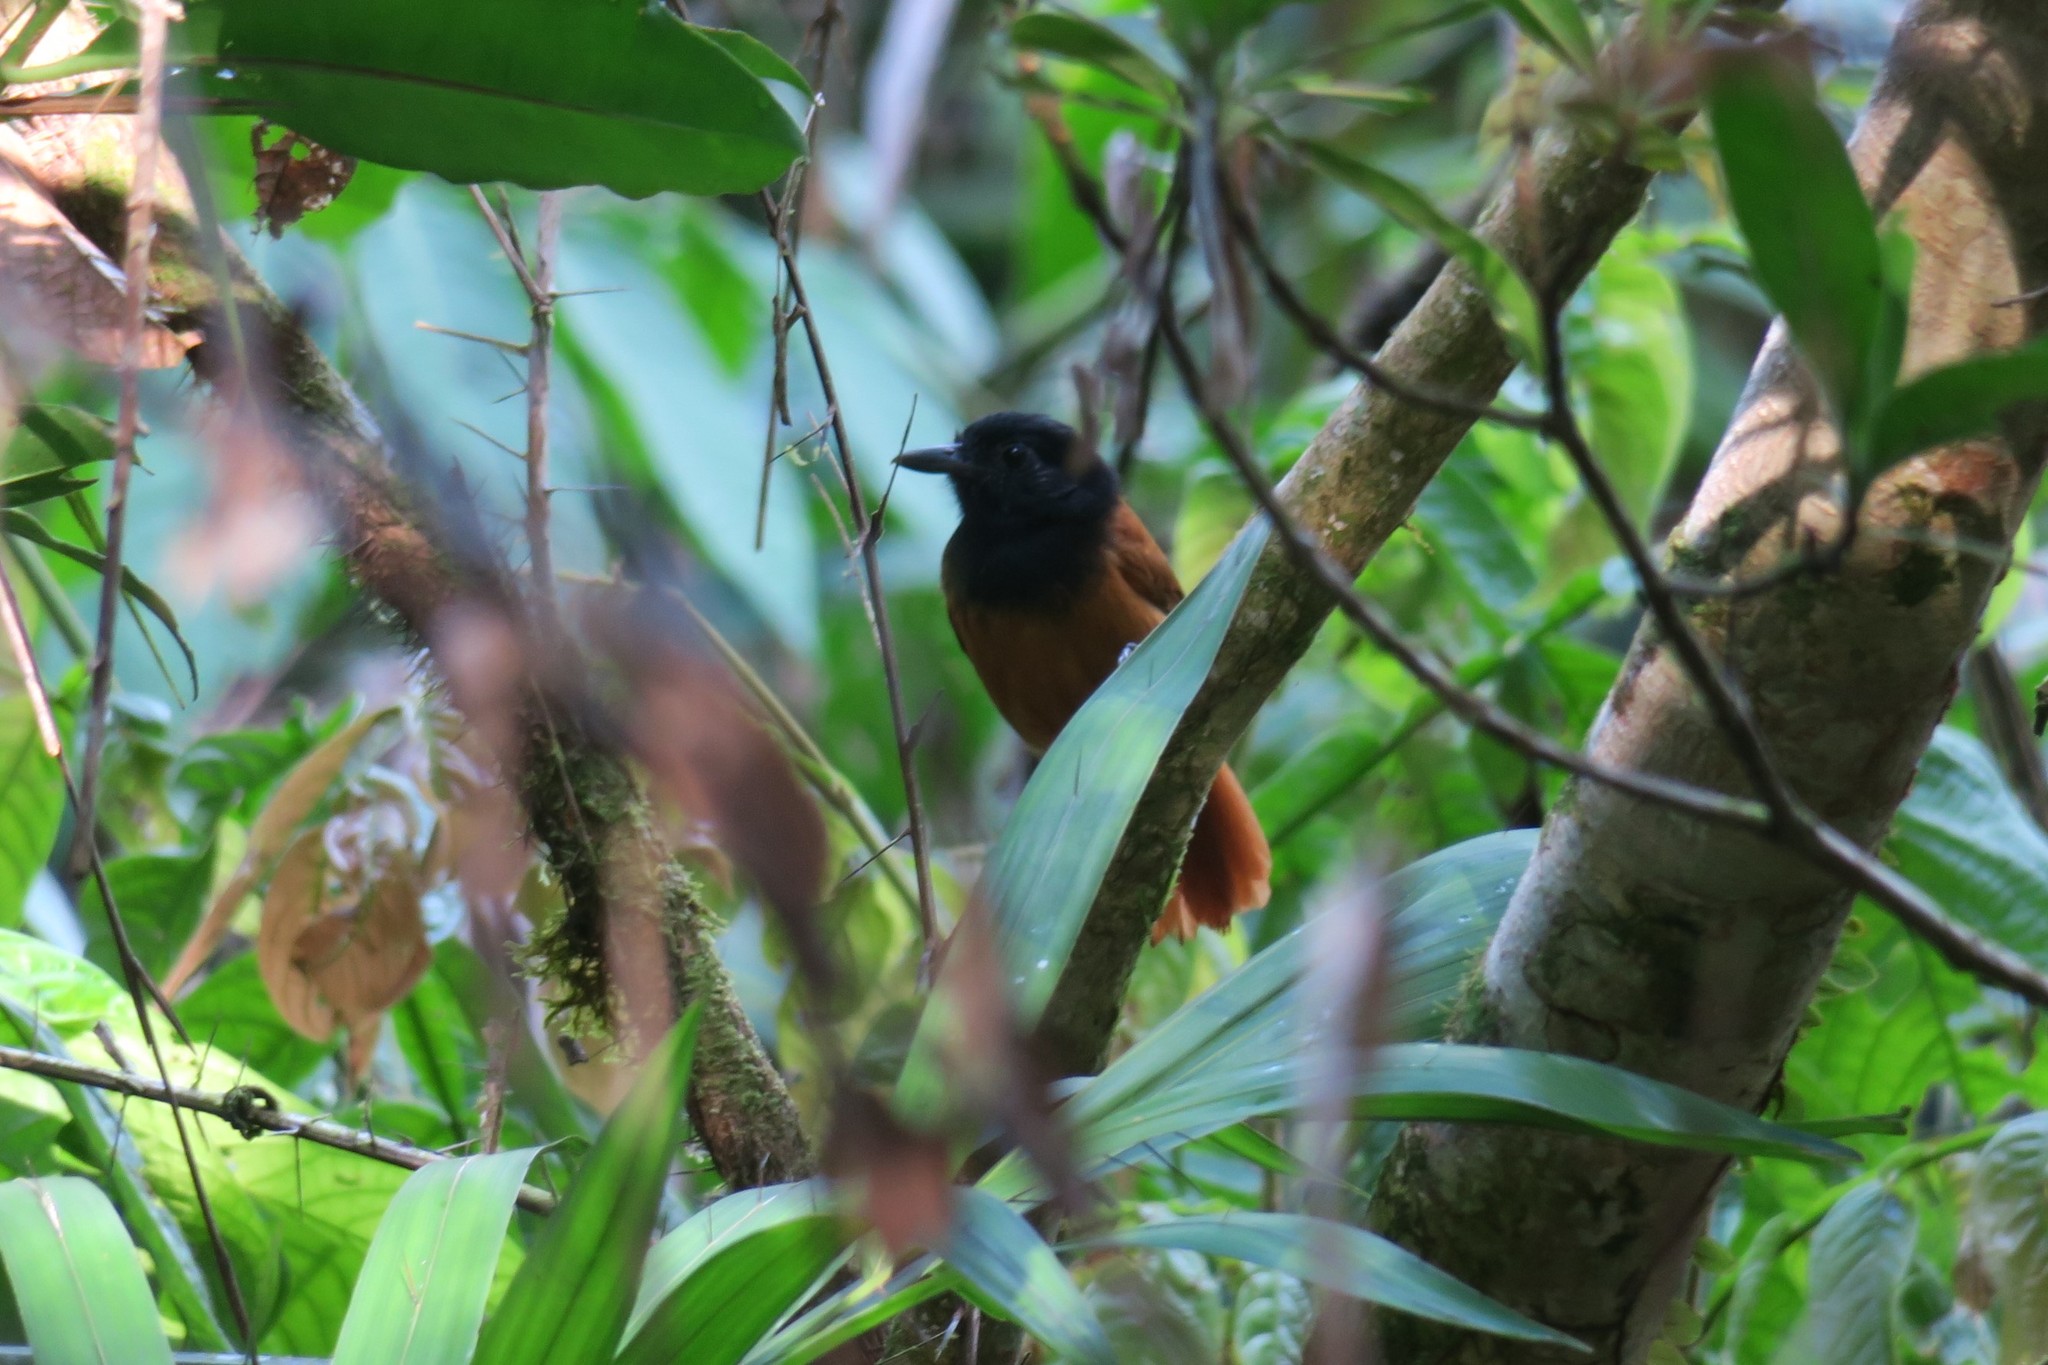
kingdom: Animalia
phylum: Chordata
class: Aves
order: Passeriformes
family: Thamnophilidae
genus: Thamnophilus
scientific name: Thamnophilus praecox
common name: Cocha antshrike
